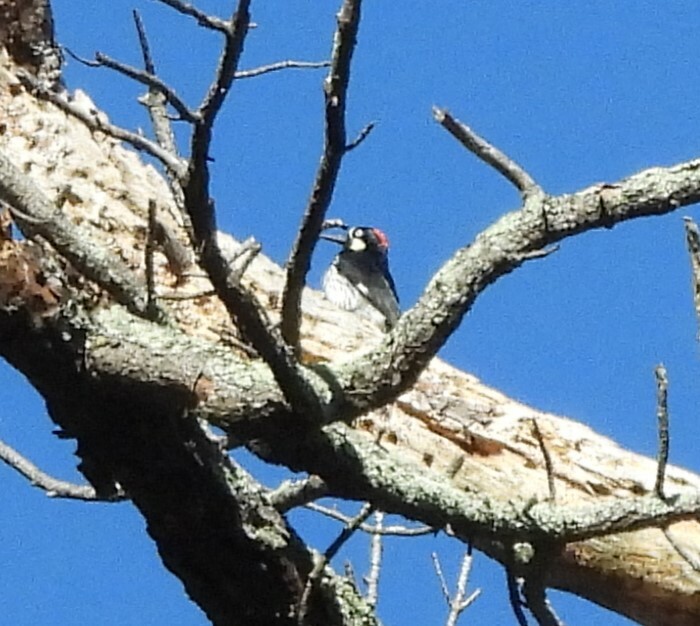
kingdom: Animalia
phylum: Chordata
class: Aves
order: Piciformes
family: Picidae
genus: Melanerpes
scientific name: Melanerpes formicivorus
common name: Acorn woodpecker
